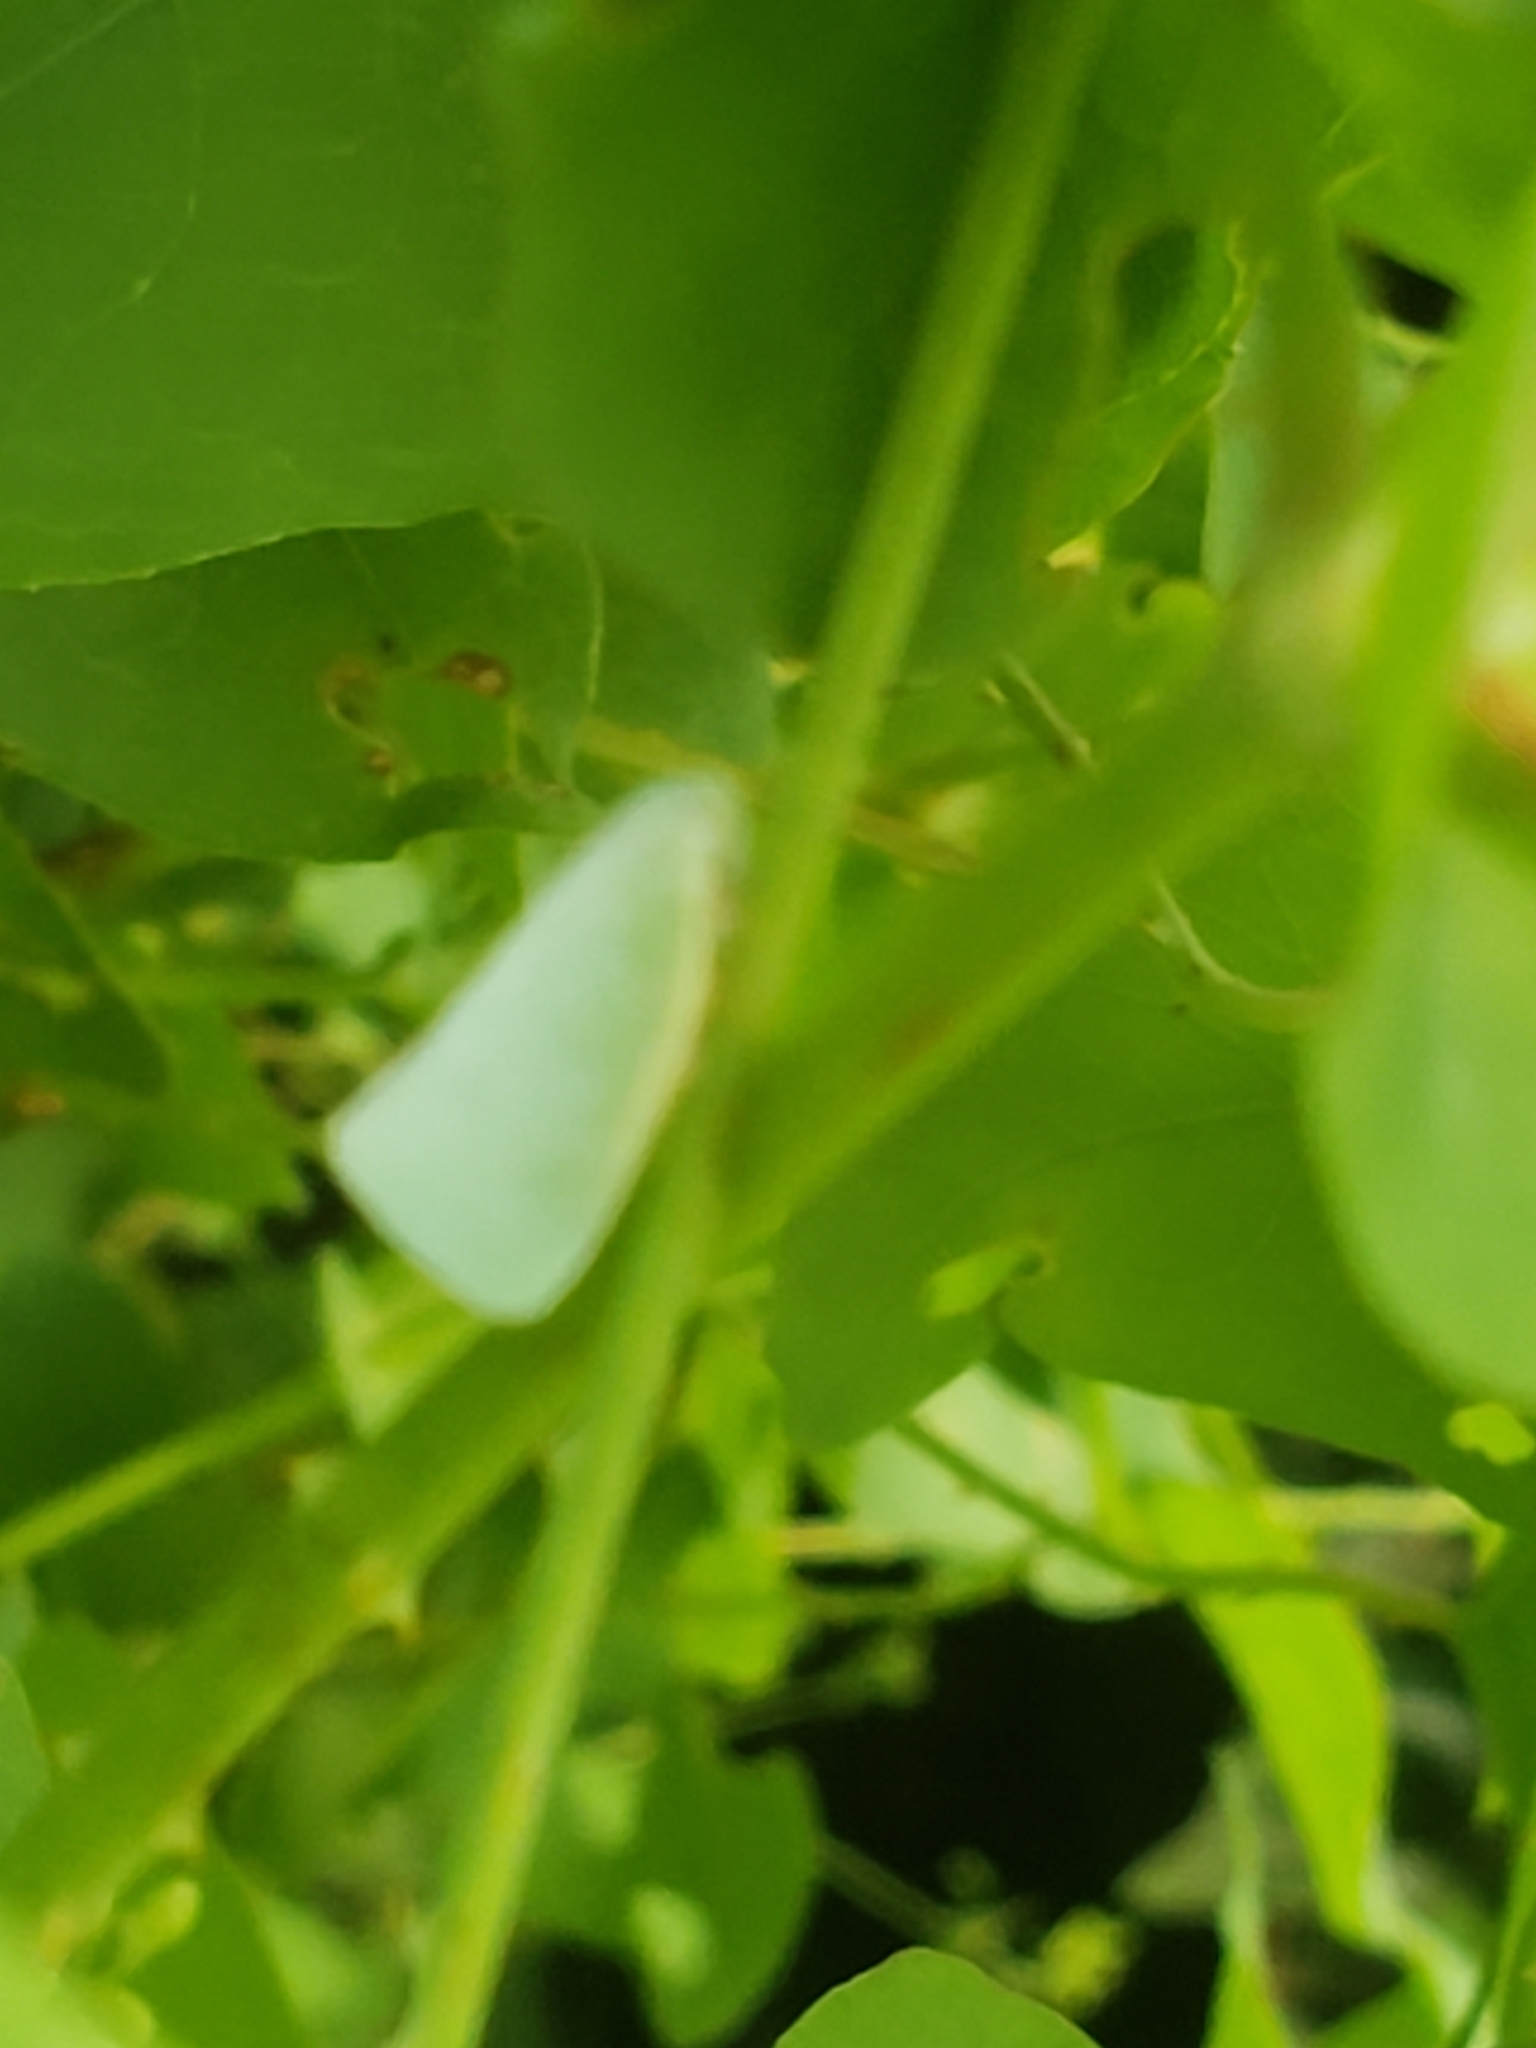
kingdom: Animalia
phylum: Arthropoda
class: Insecta
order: Hemiptera
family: Flatidae
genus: Flatormenis
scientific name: Flatormenis proxima
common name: Northern flatid planthopper
